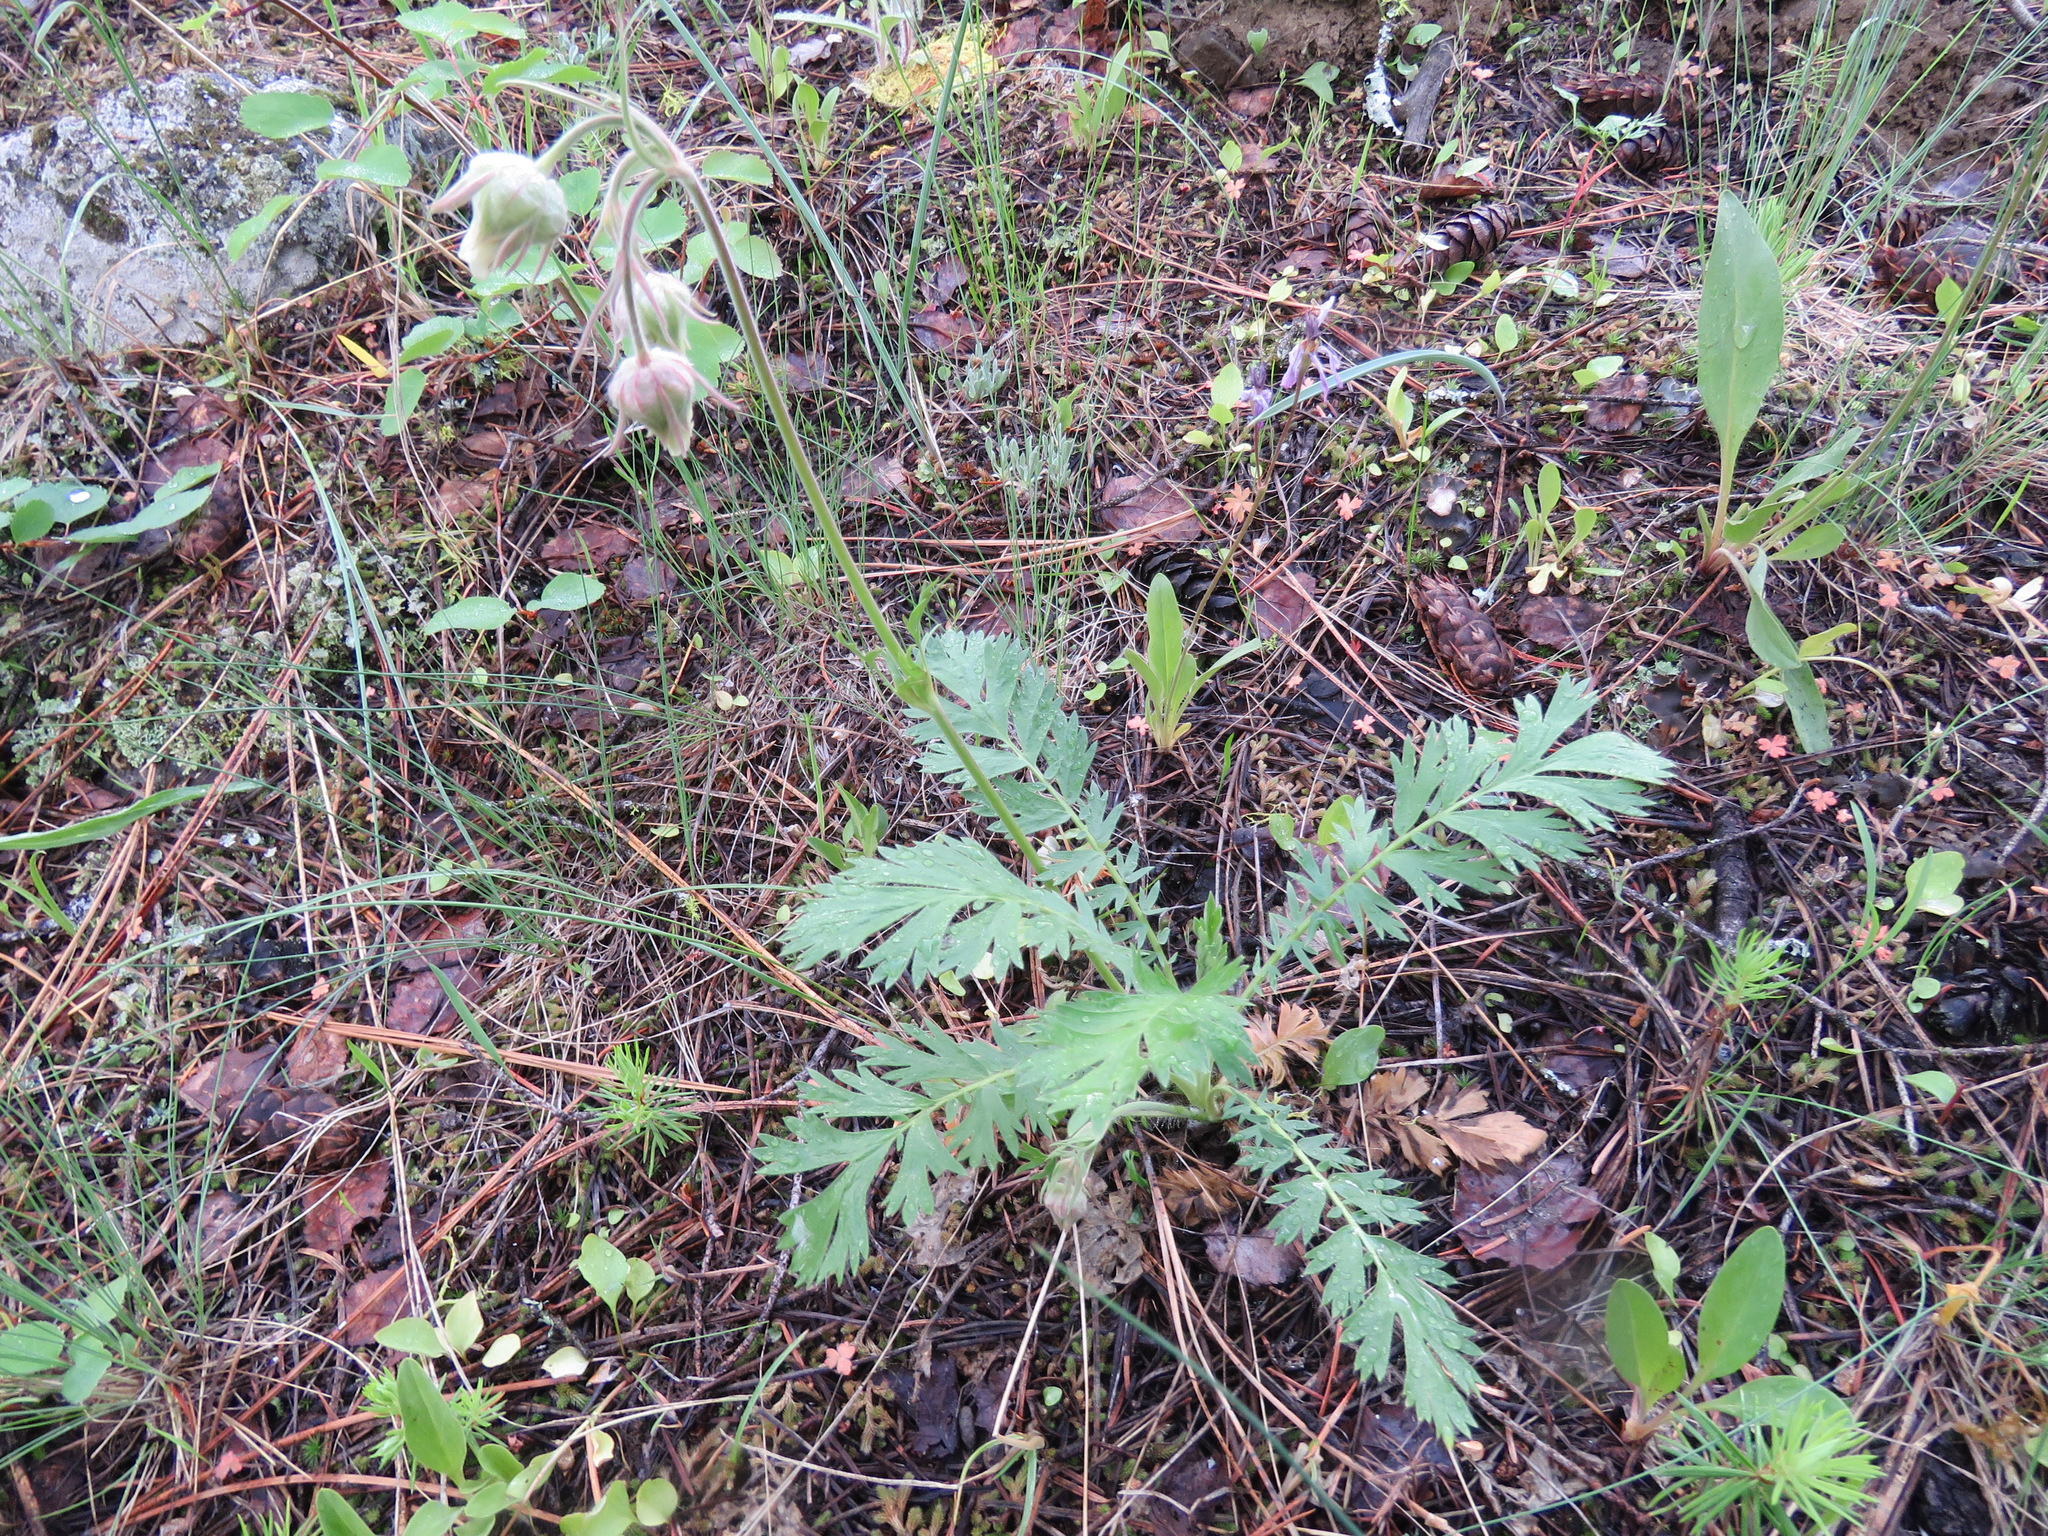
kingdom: Plantae
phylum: Tracheophyta
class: Magnoliopsida
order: Rosales
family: Rosaceae
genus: Geum
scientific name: Geum triflorum
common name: Old man's whiskers
